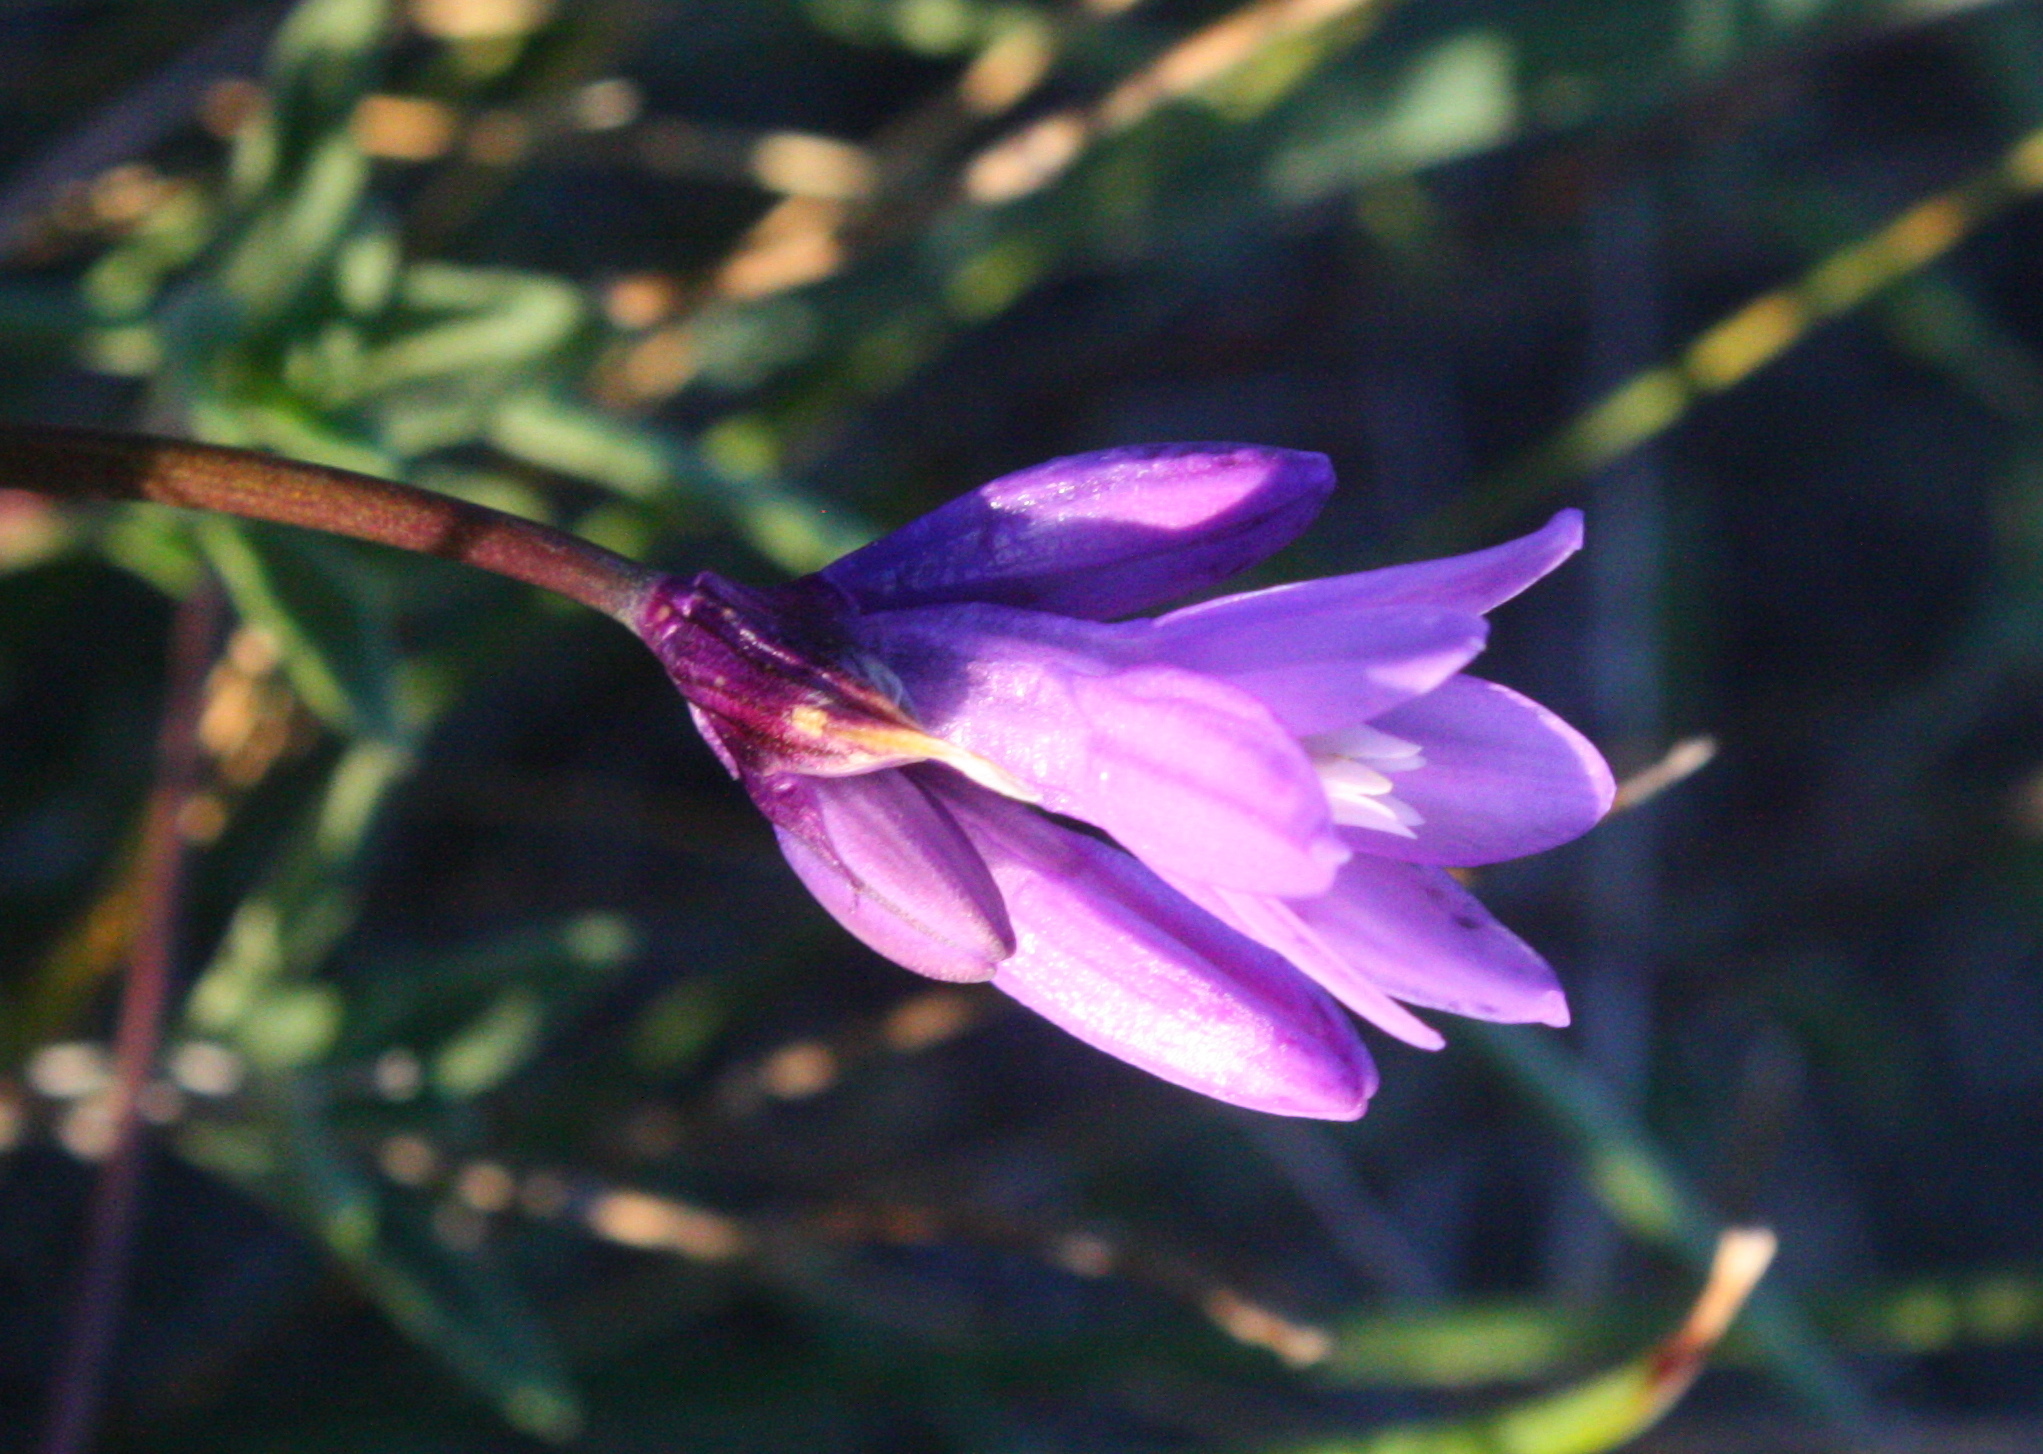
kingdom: Plantae
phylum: Tracheophyta
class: Liliopsida
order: Asparagales
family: Asparagaceae
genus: Dipterostemon
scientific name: Dipterostemon capitatus
